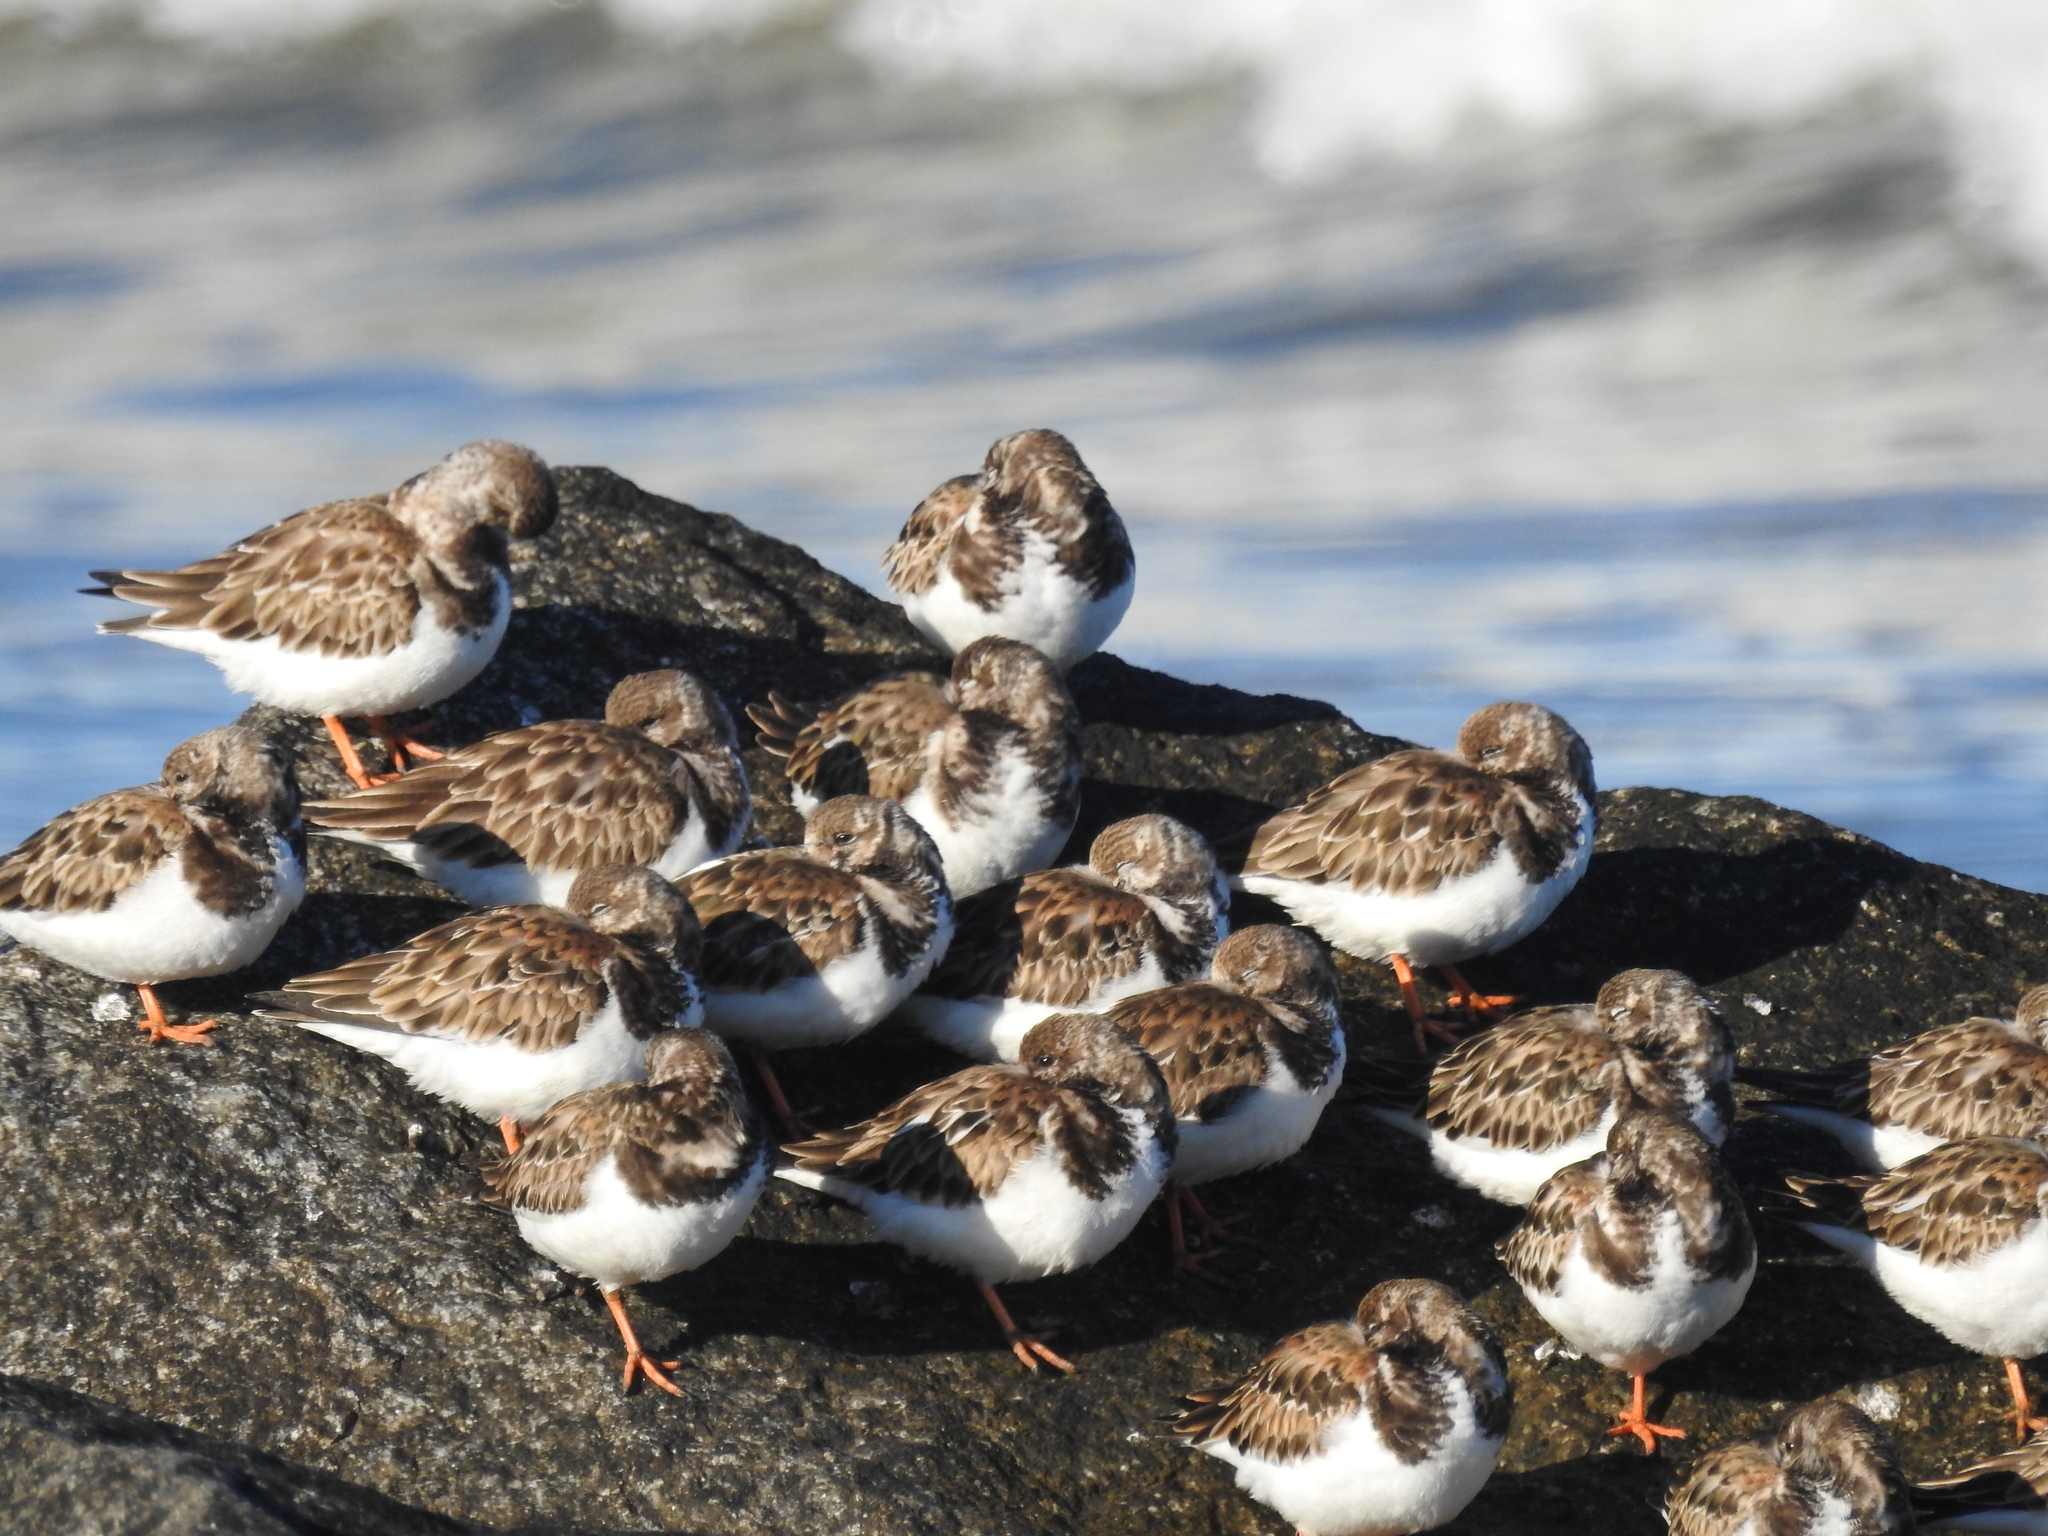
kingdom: Animalia
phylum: Chordata
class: Aves
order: Charadriiformes
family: Scolopacidae
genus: Arenaria
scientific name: Arenaria interpres
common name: Ruddy turnstone
